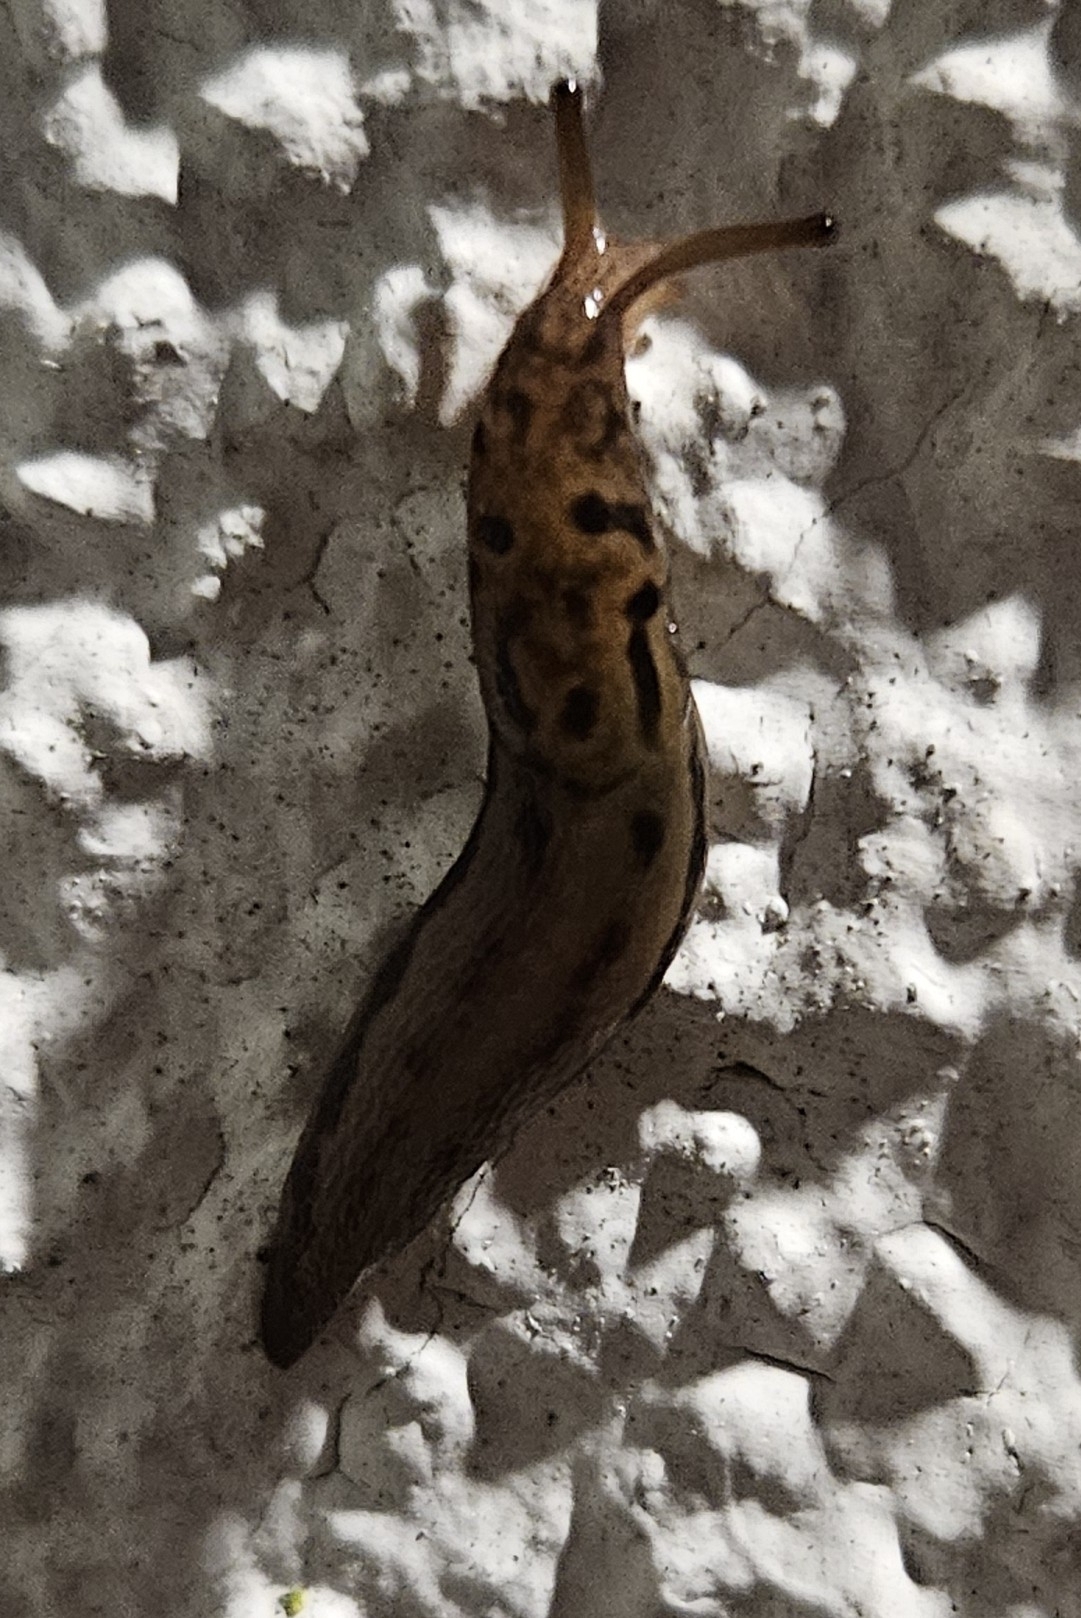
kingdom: Animalia
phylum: Mollusca
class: Gastropoda
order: Stylommatophora
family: Limacidae
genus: Limax
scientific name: Limax maximus
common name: Great grey slug
